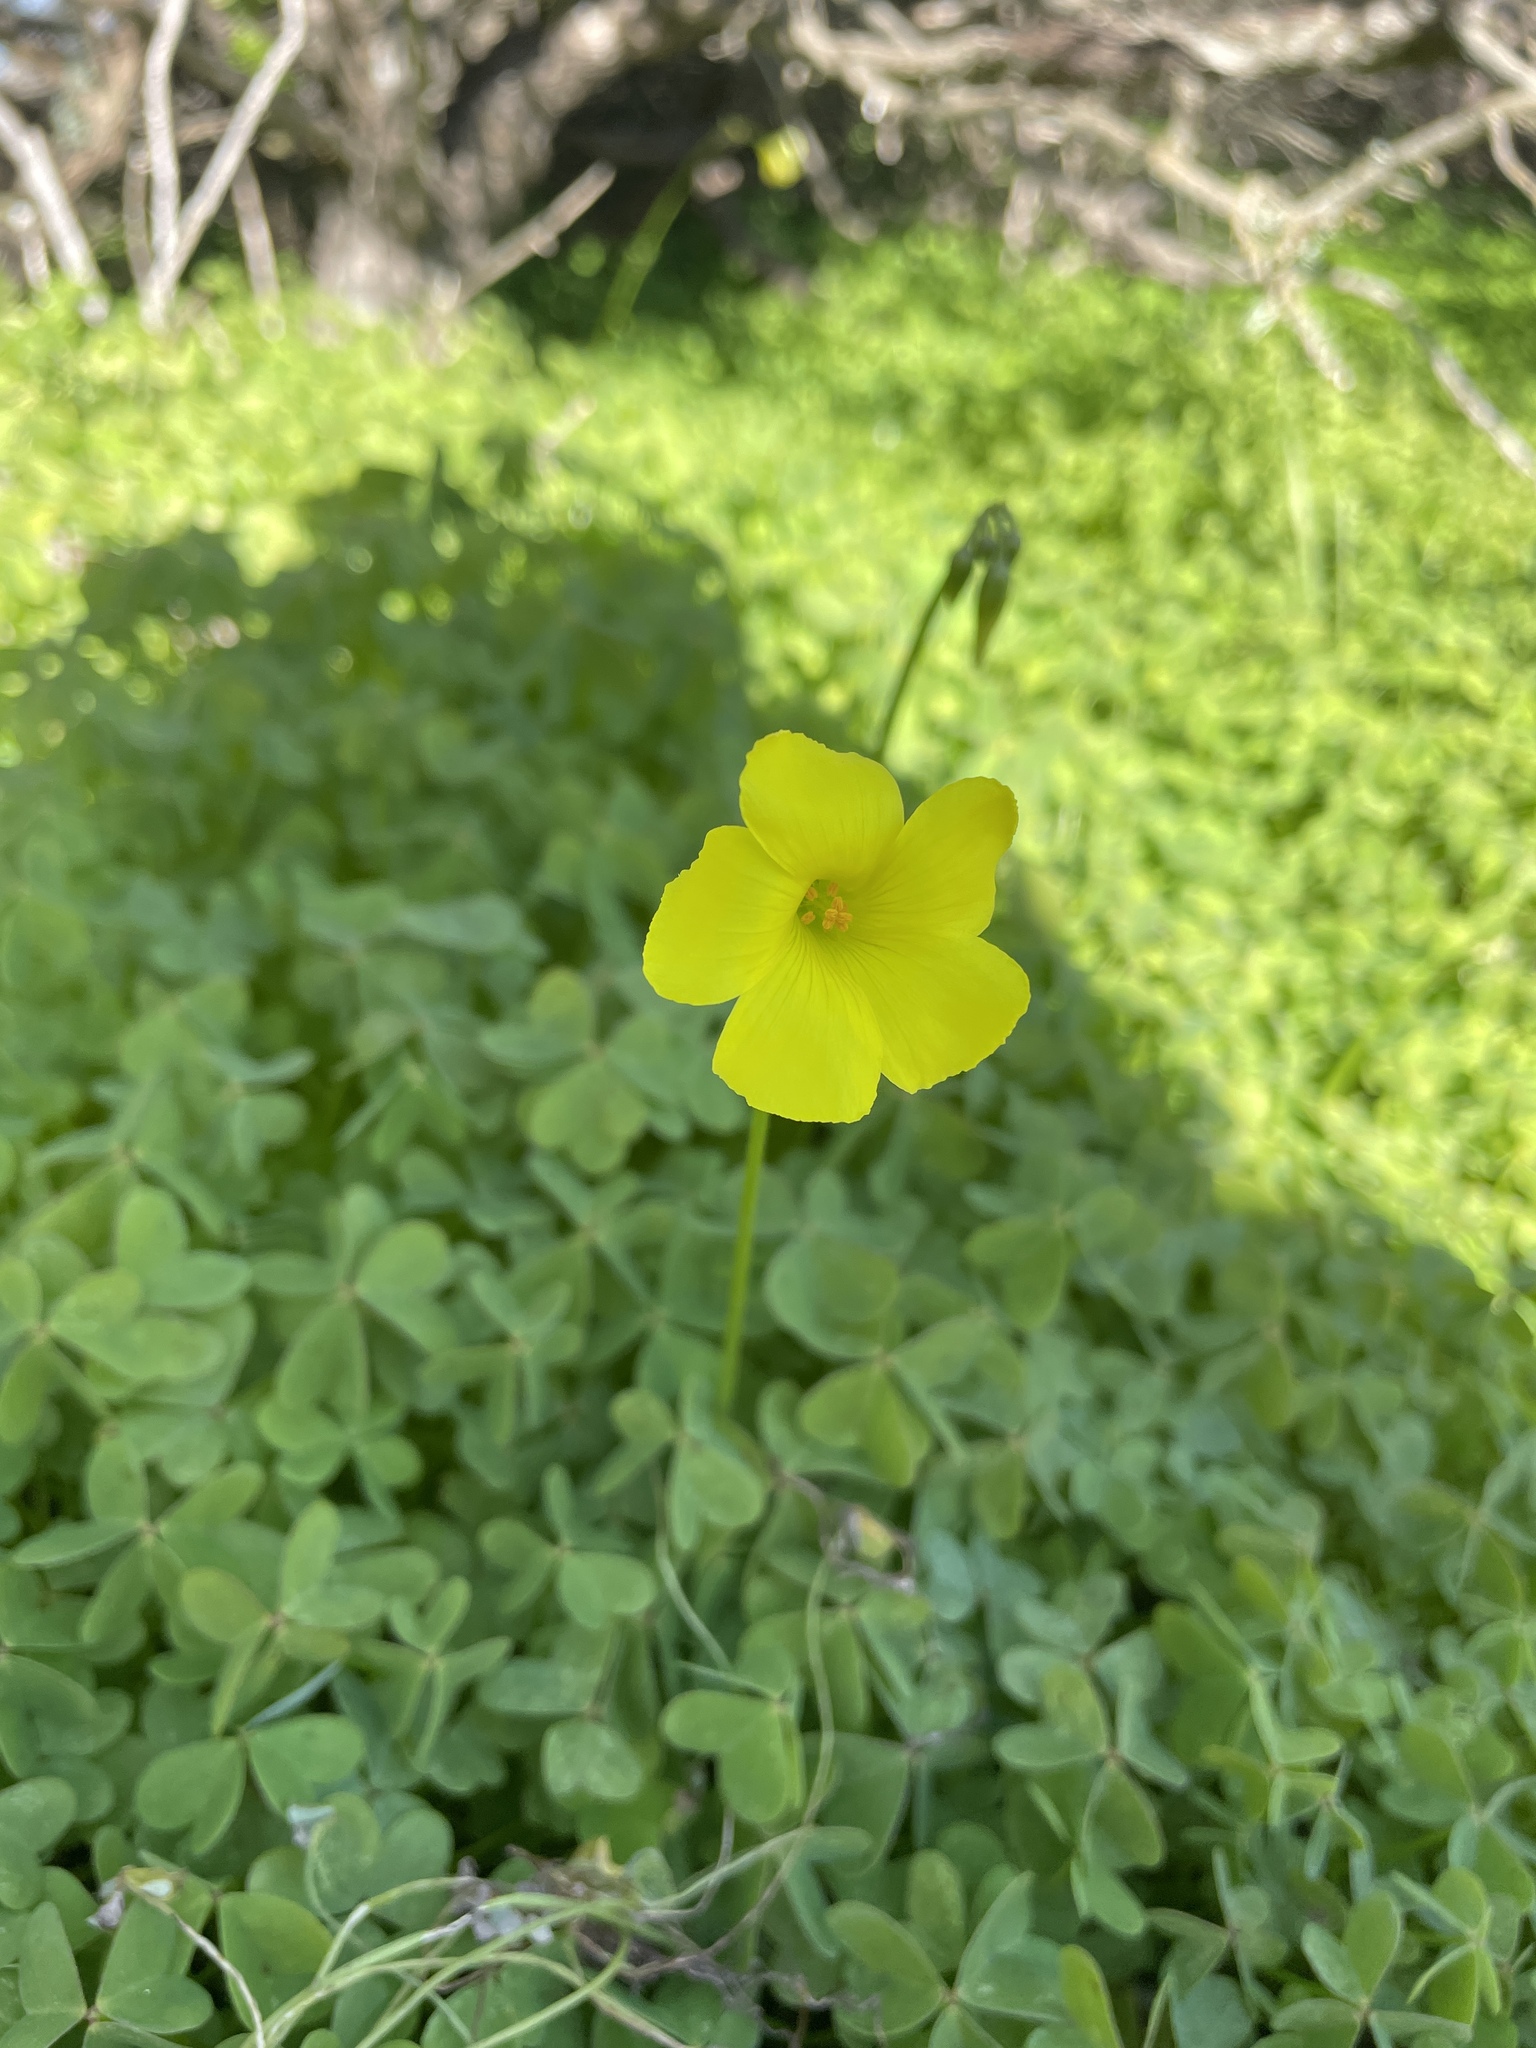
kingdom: Plantae
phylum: Tracheophyta
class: Magnoliopsida
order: Oxalidales
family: Oxalidaceae
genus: Oxalis
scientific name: Oxalis pes-caprae
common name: Bermuda-buttercup
